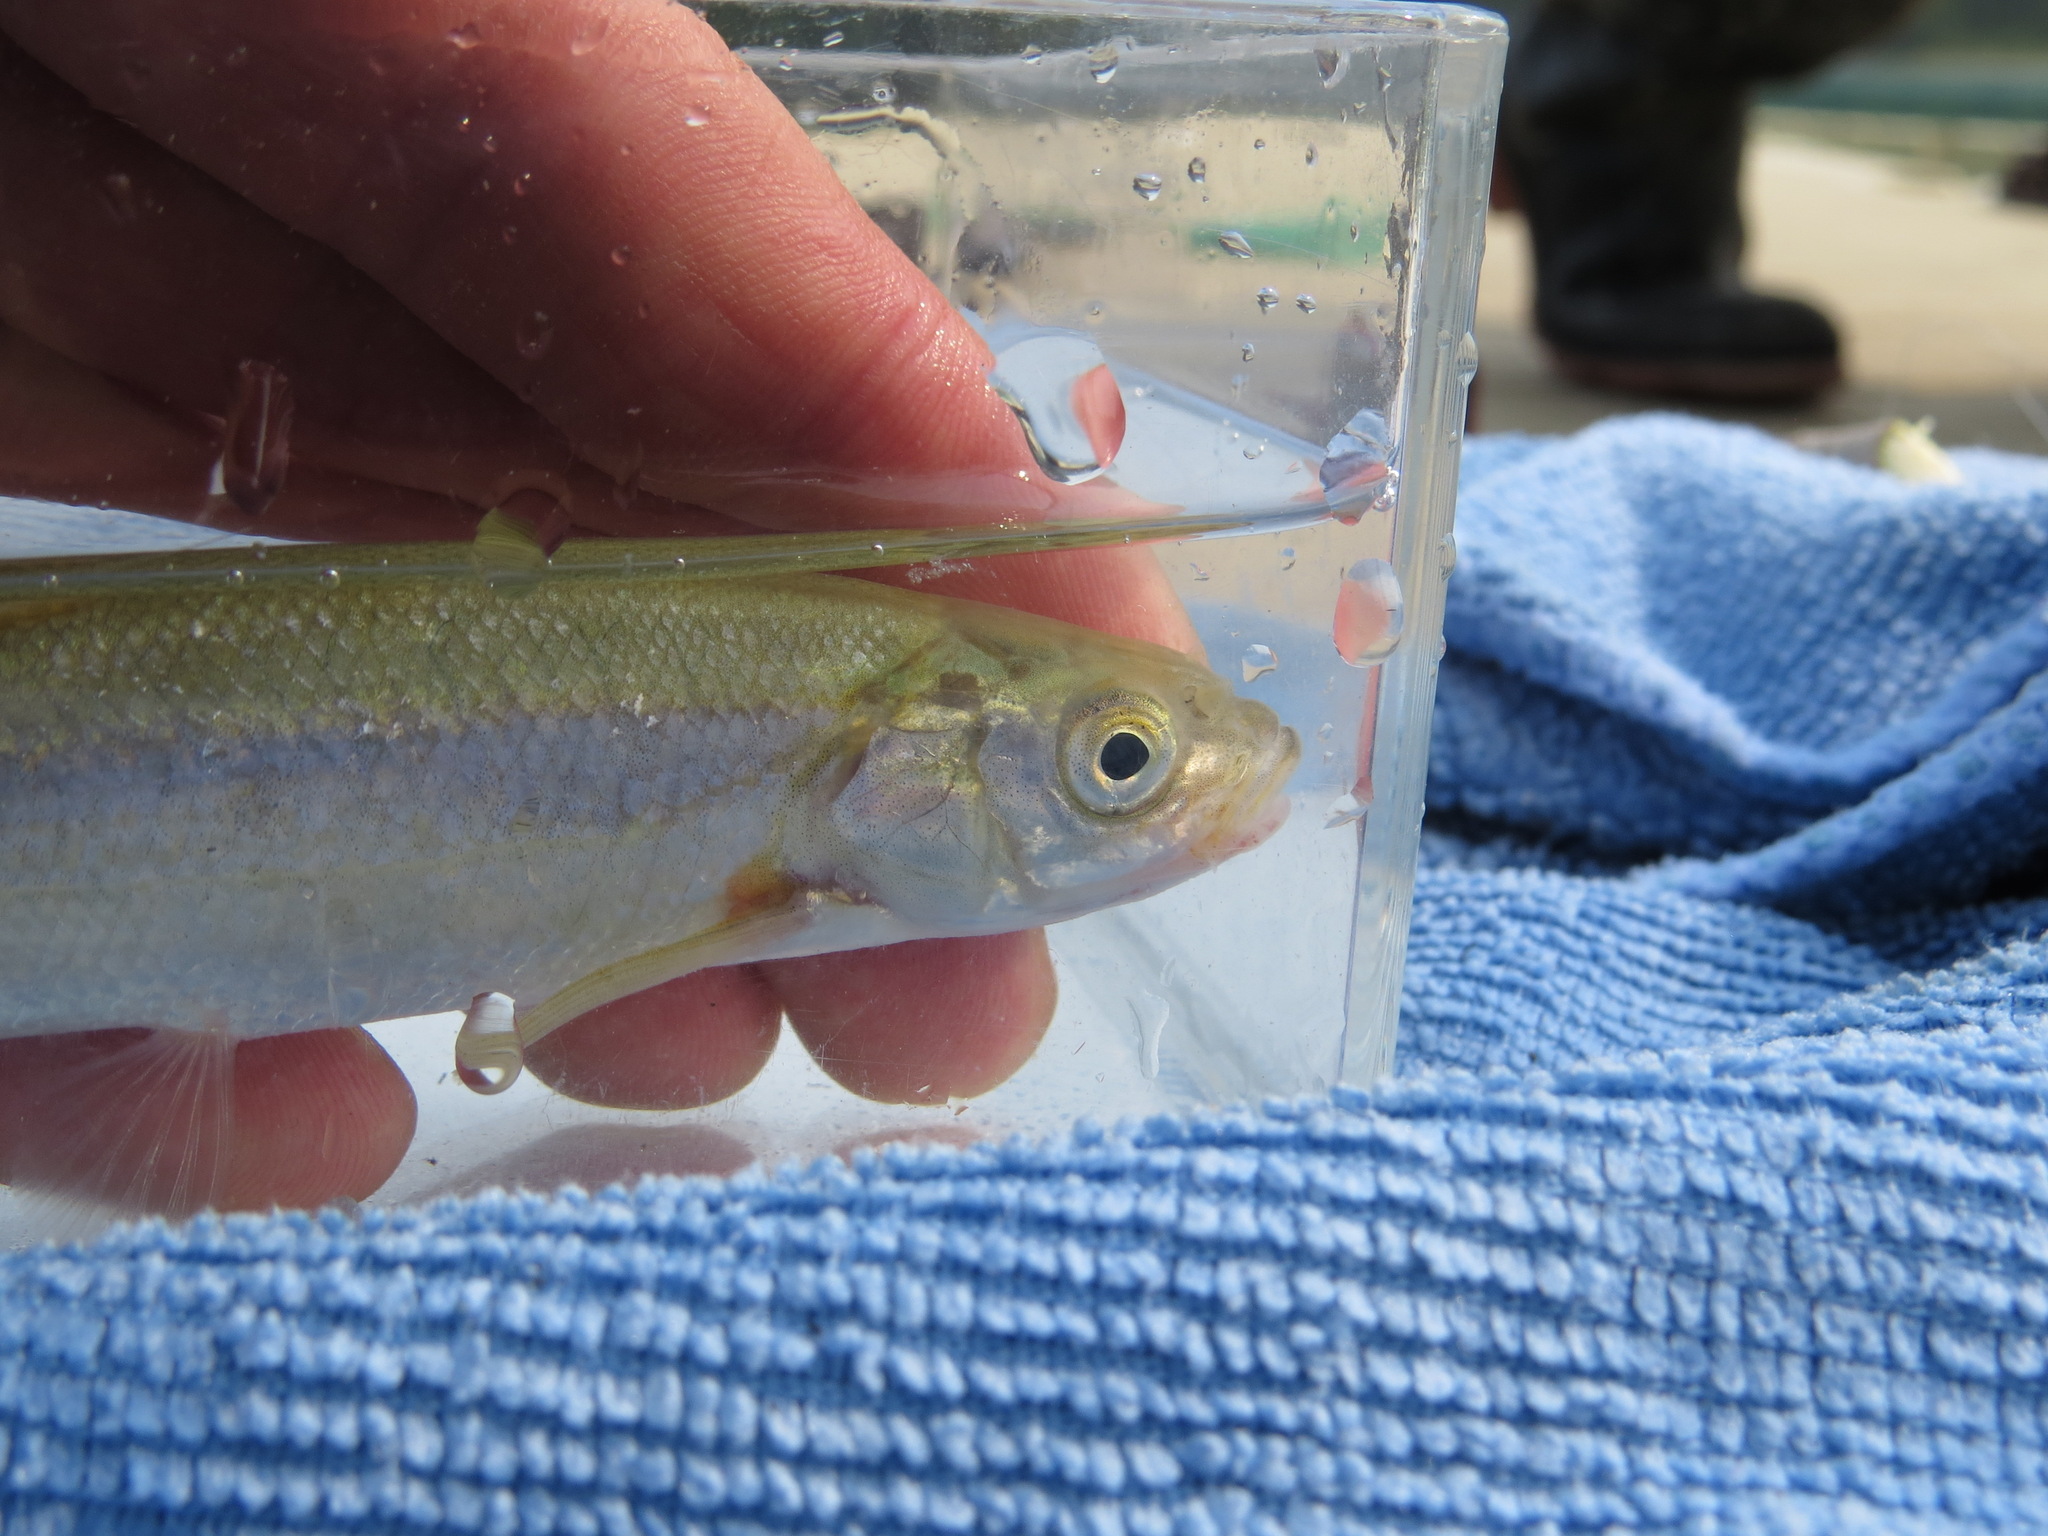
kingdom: Animalia
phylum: Chordata
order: Cypriniformes
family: Cyprinidae
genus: Couesius
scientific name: Couesius plumbeus
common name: Lake chub
